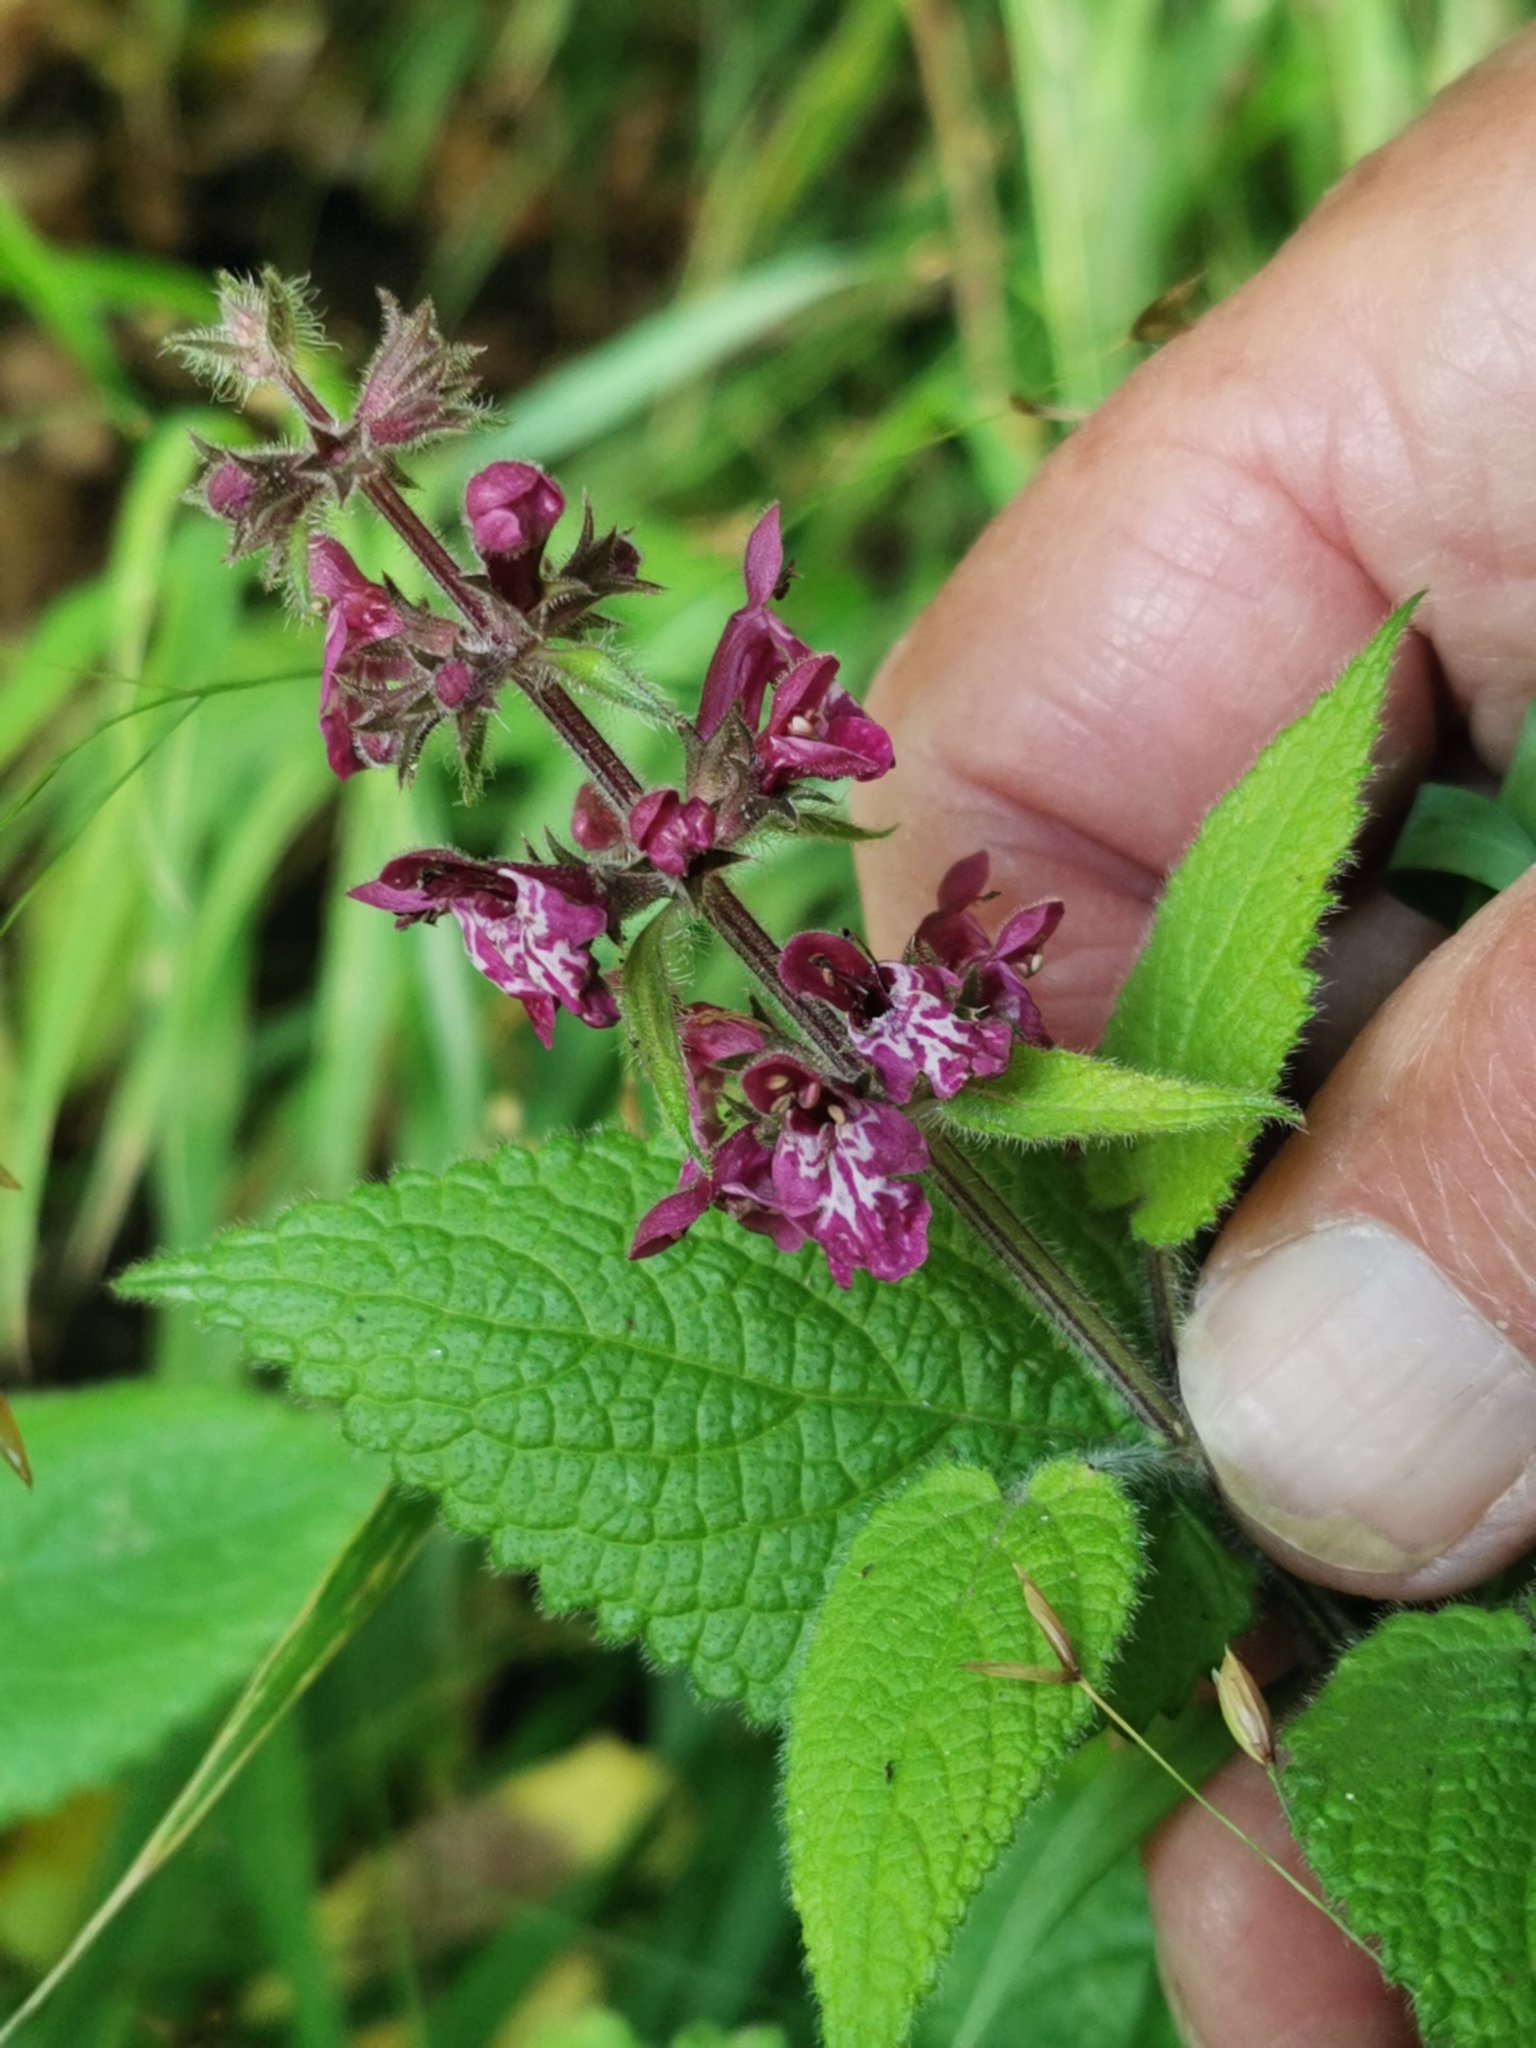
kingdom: Plantae
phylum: Tracheophyta
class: Magnoliopsida
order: Lamiales
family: Lamiaceae
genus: Stachys
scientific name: Stachys sylvatica
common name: Hedge woundwort
